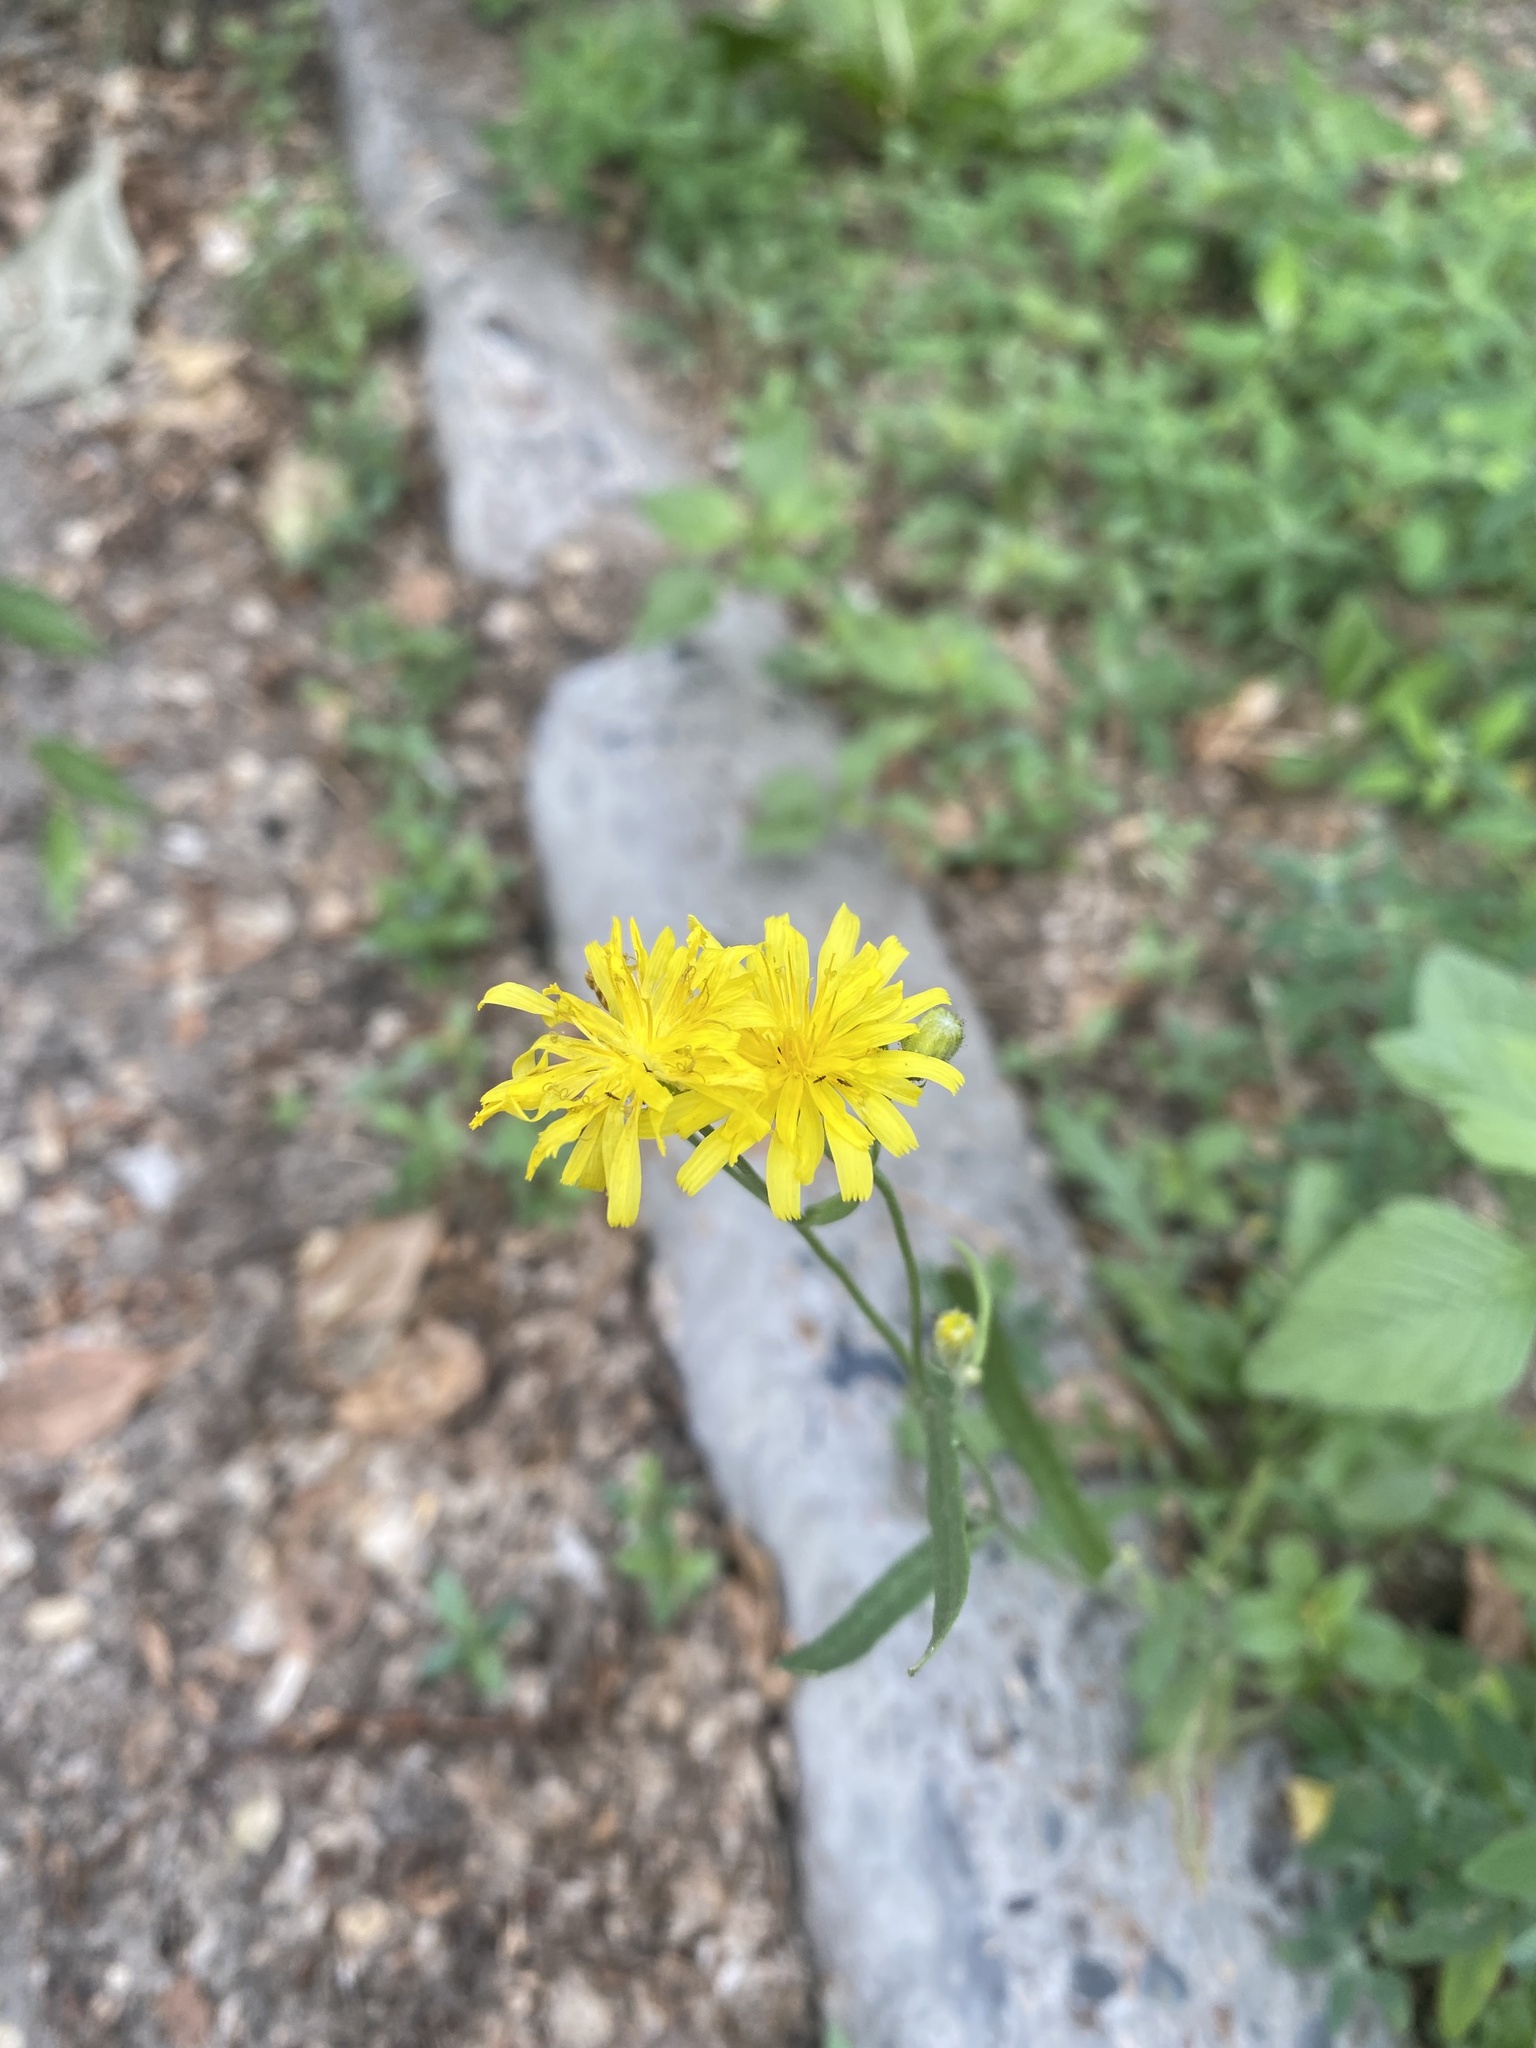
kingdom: Plantae
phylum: Tracheophyta
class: Magnoliopsida
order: Asterales
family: Asteraceae
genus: Crepis
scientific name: Crepis tectorum
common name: Narrow-leaved hawk's-beard
